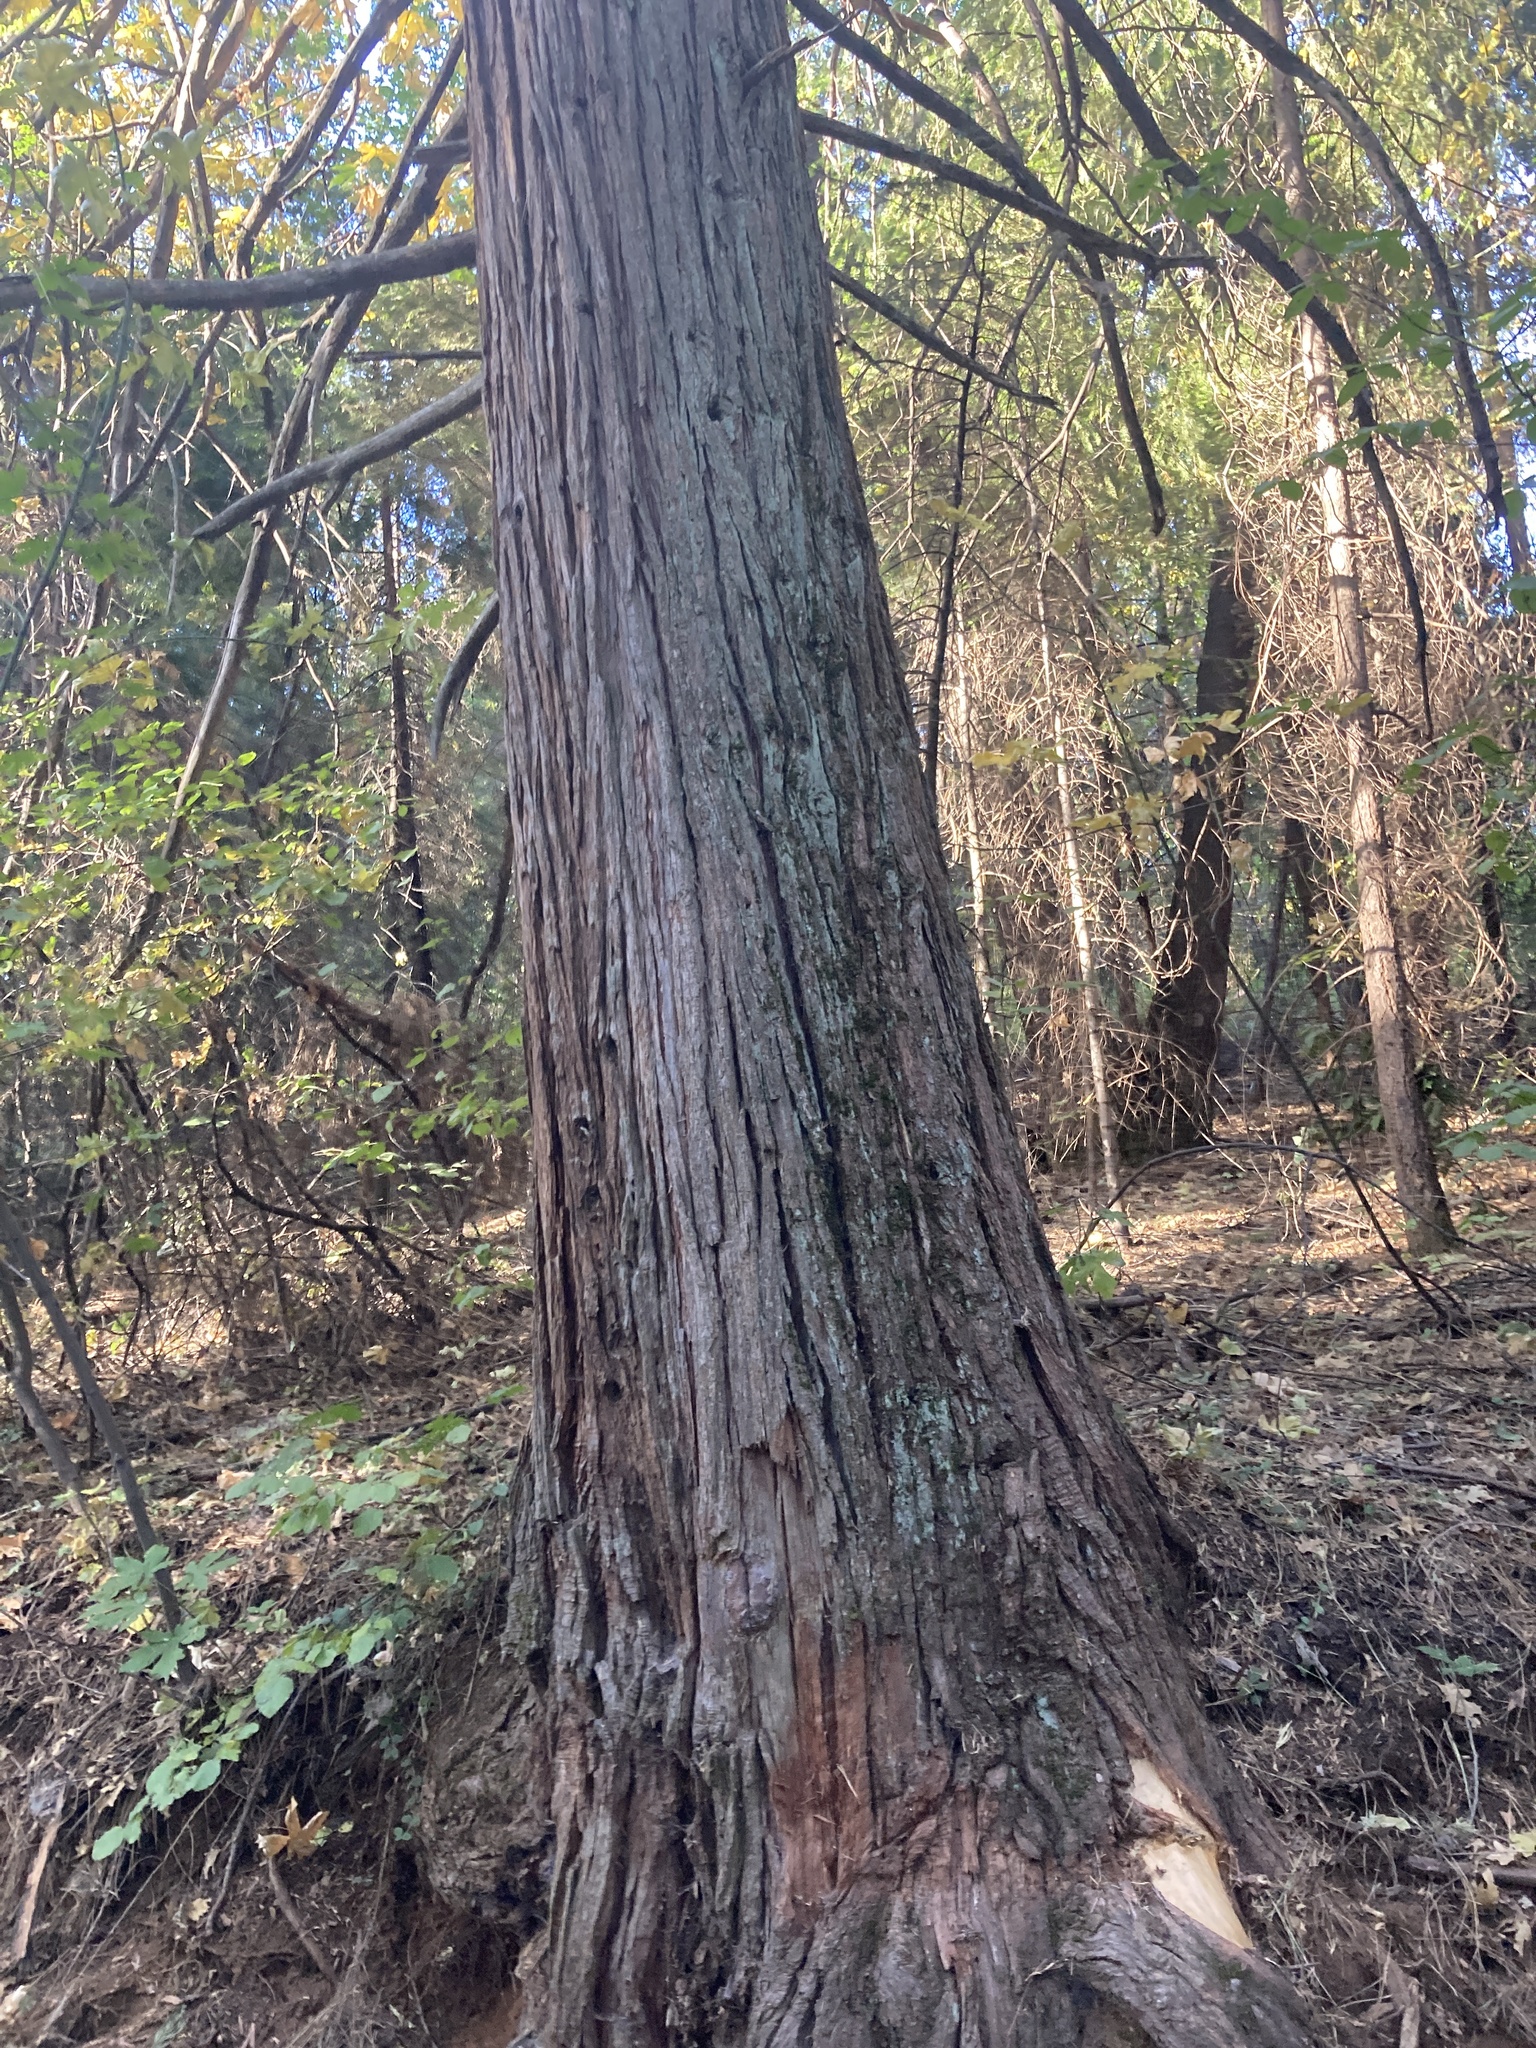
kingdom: Plantae
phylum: Tracheophyta
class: Pinopsida
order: Pinales
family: Cupressaceae
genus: Calocedrus
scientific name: Calocedrus decurrens
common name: Californian incense-cedar
